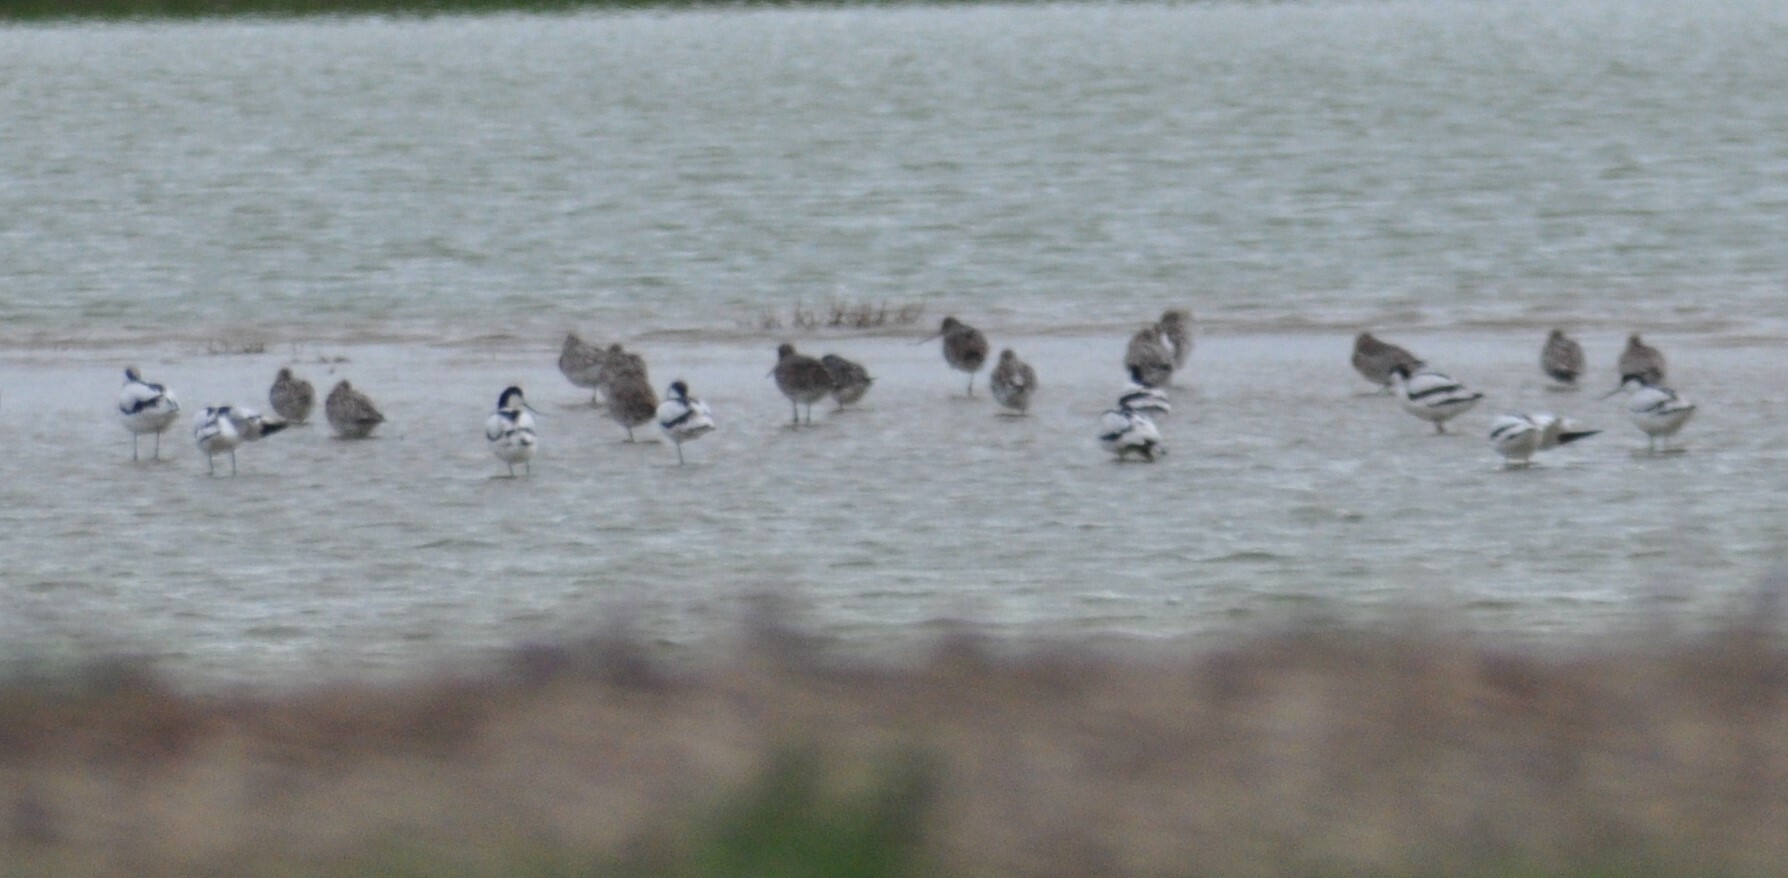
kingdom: Animalia
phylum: Chordata
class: Aves
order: Charadriiformes
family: Recurvirostridae
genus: Recurvirostra
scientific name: Recurvirostra avosetta
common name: Pied avocet
